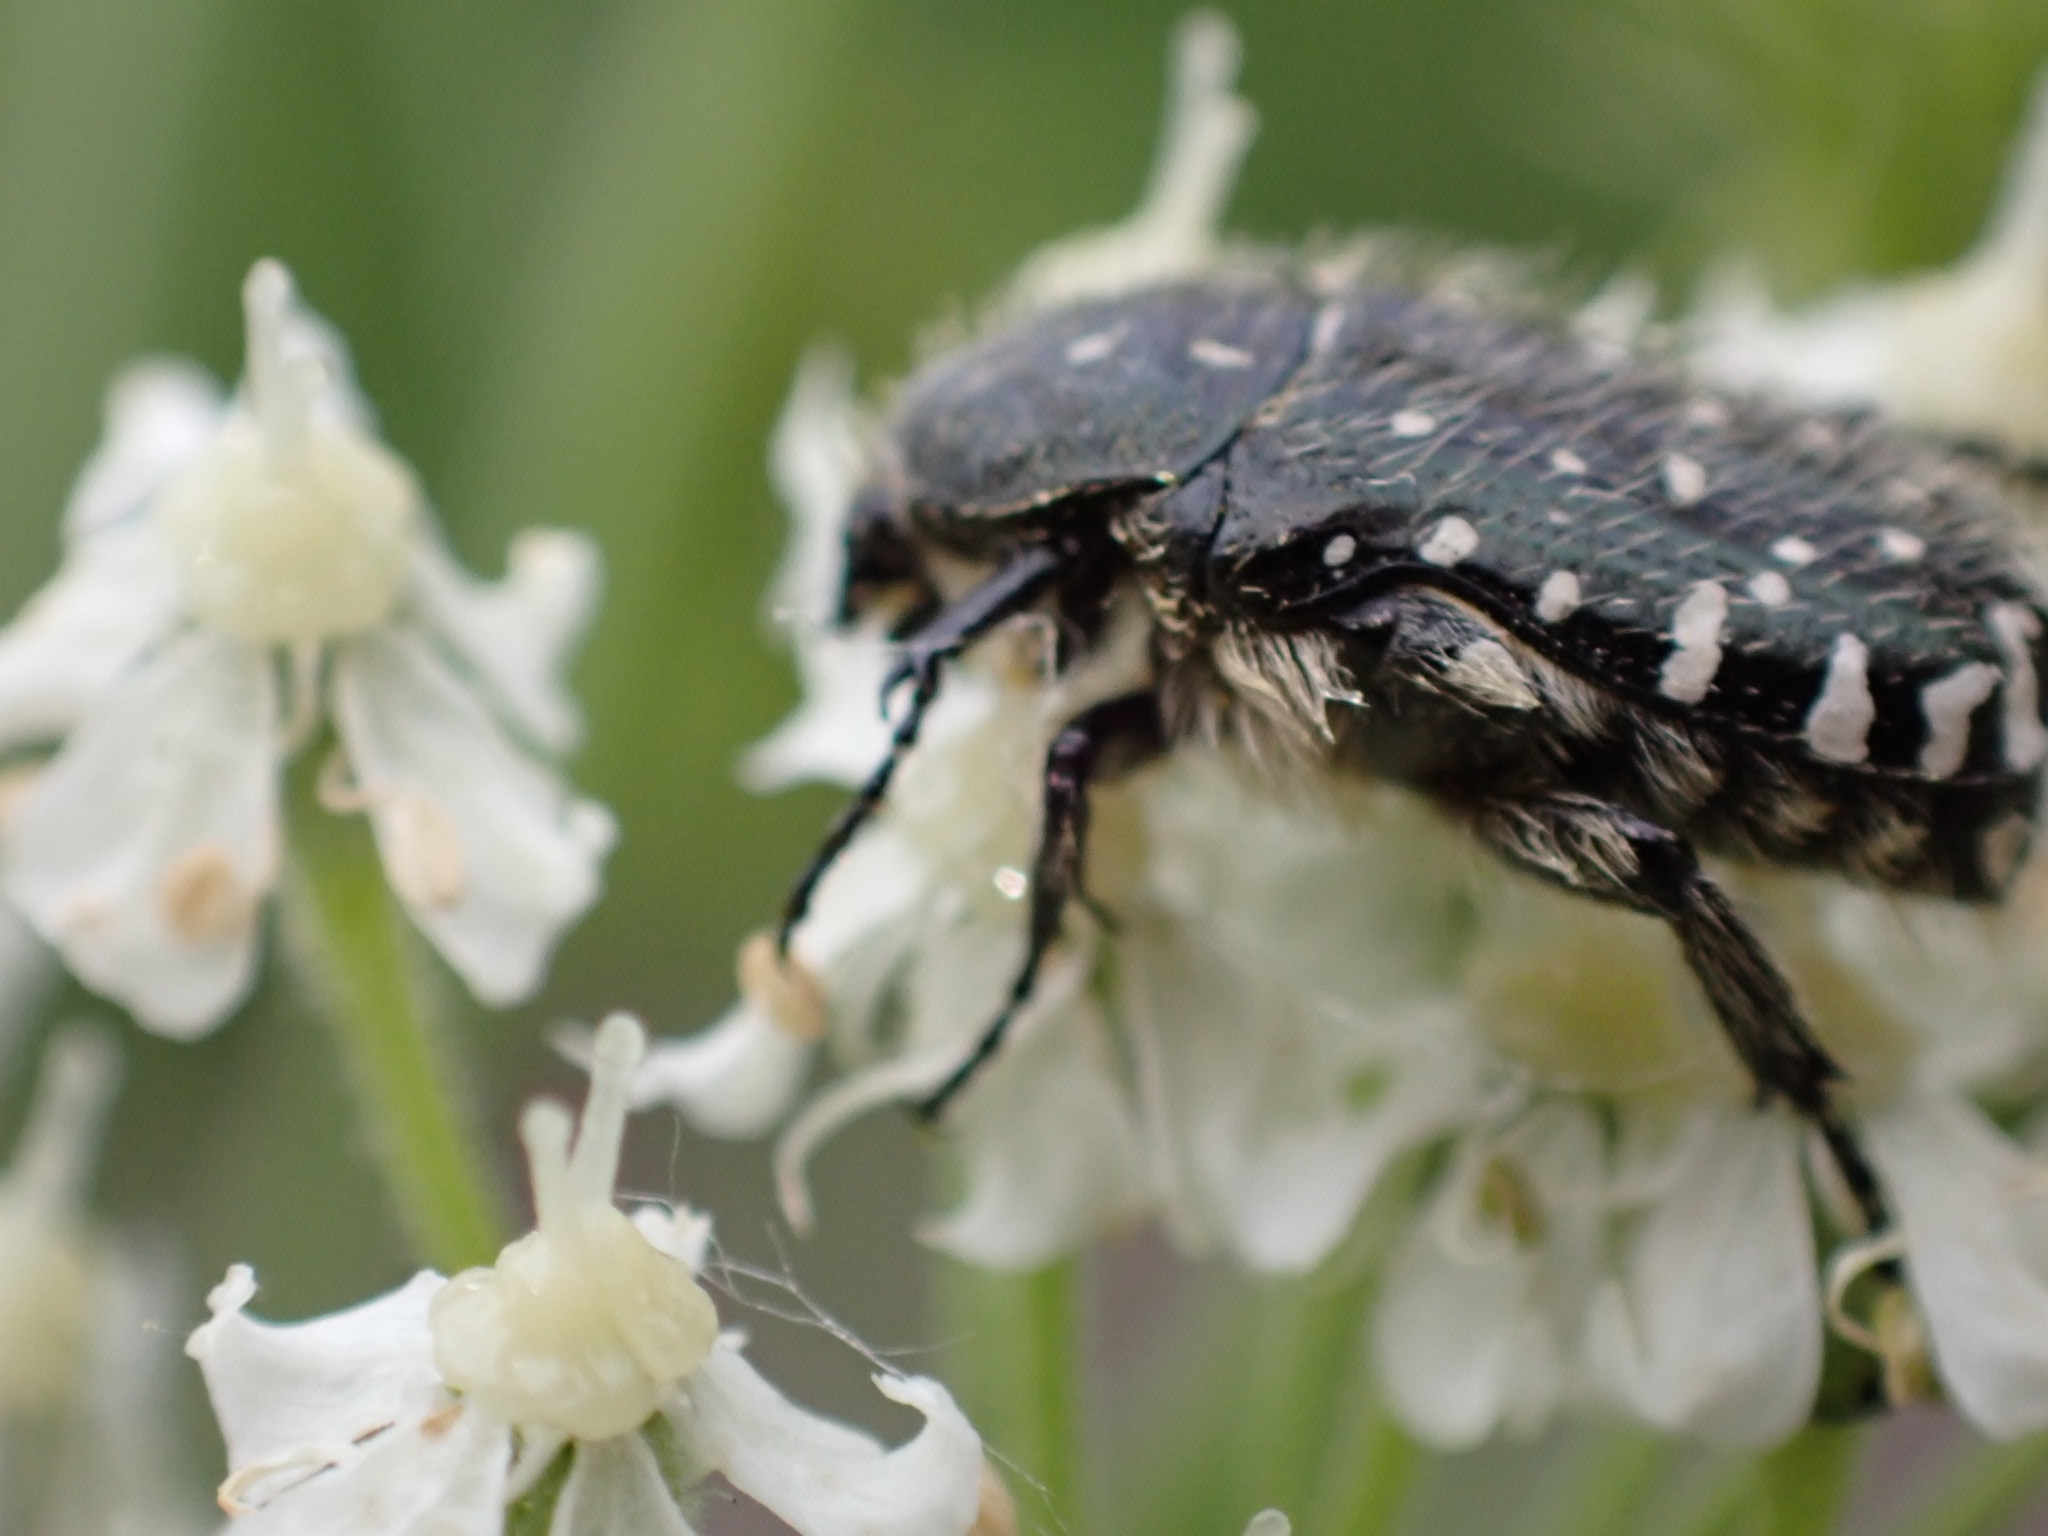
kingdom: Animalia
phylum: Arthropoda
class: Insecta
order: Coleoptera
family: Scarabaeidae
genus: Oxythyrea
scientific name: Oxythyrea funesta
